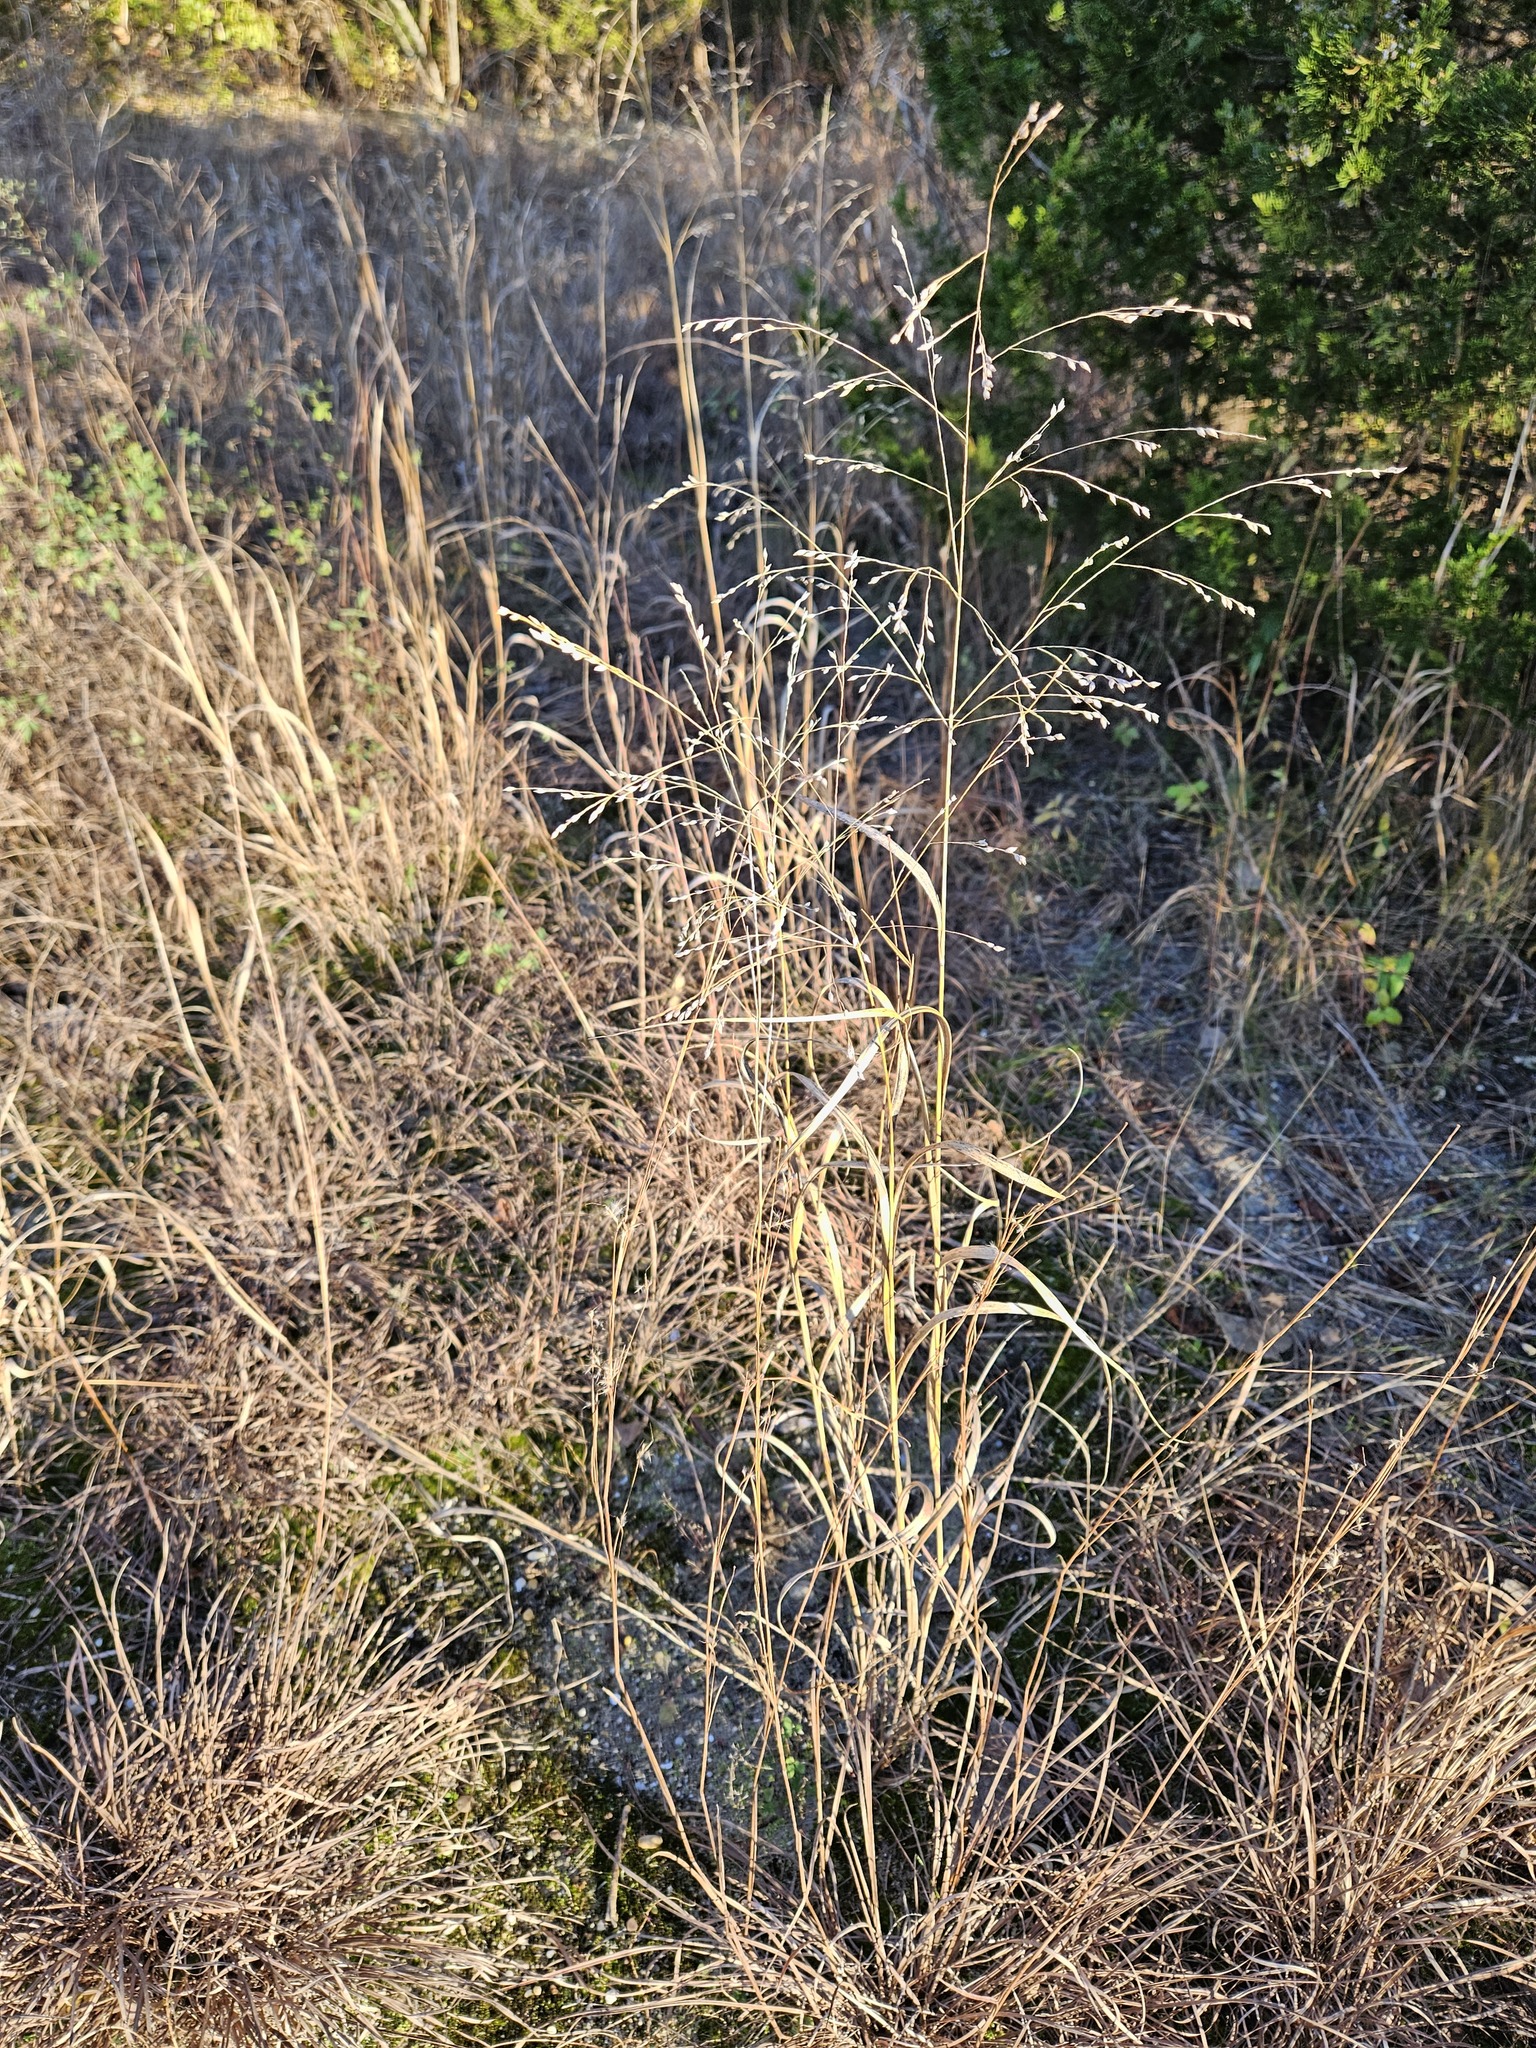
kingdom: Plantae
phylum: Tracheophyta
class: Liliopsida
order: Poales
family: Poaceae
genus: Panicum
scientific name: Panicum virgatum
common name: Switchgrass
